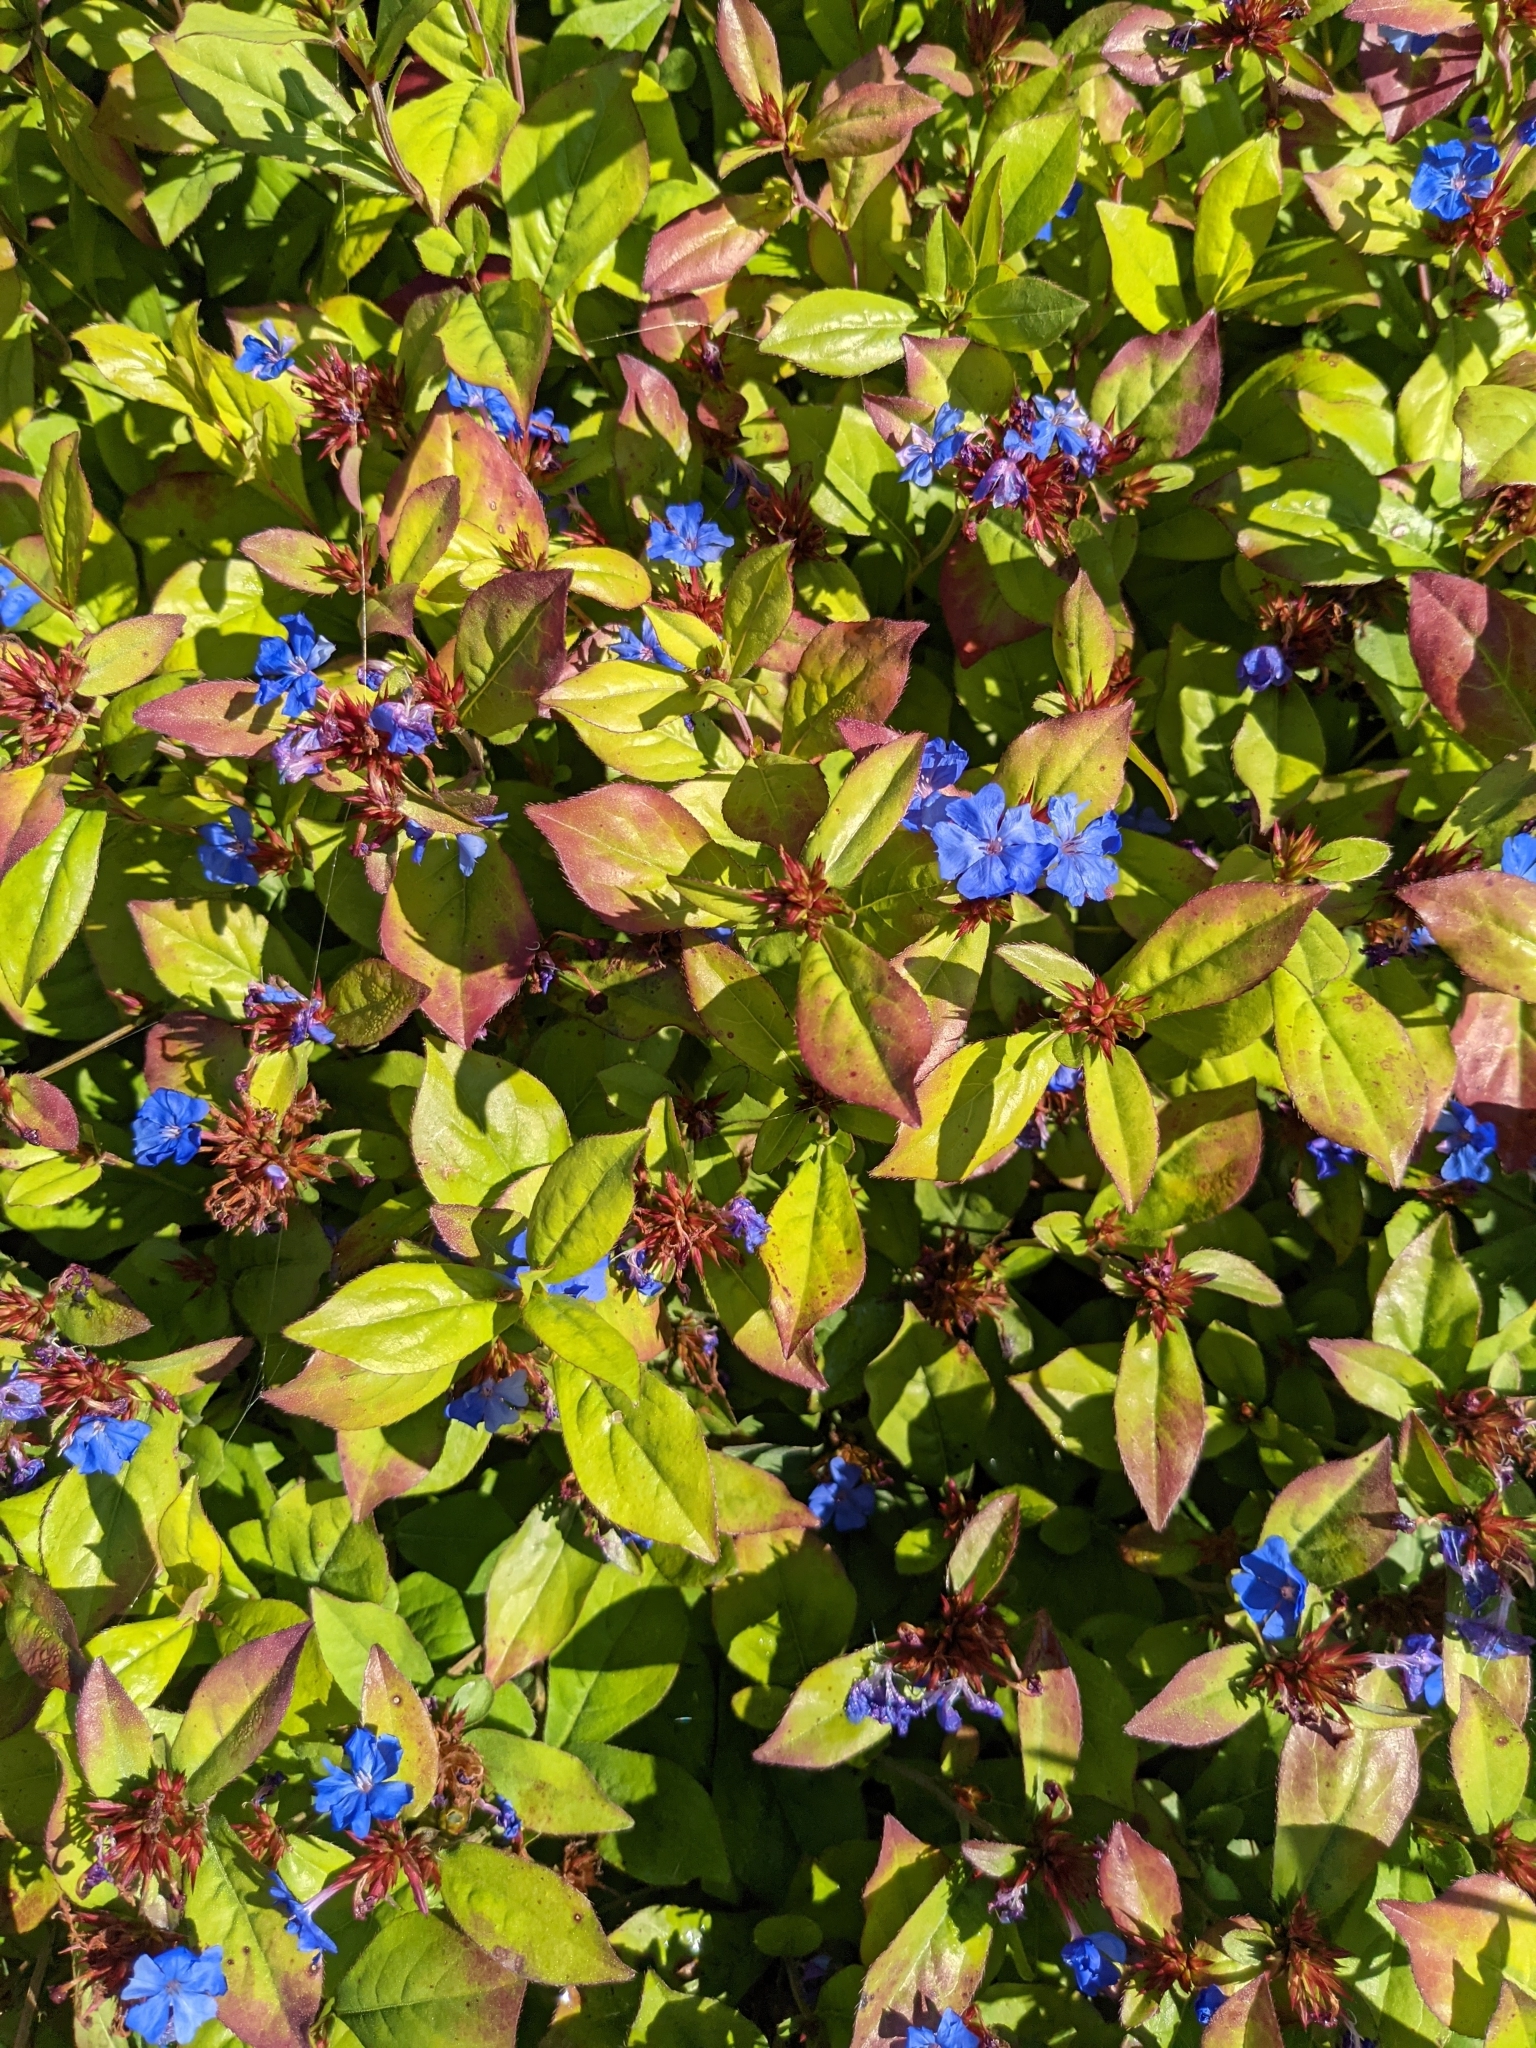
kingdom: Plantae
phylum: Tracheophyta
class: Magnoliopsida
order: Caryophyllales
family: Plumbaginaceae
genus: Ceratostigma
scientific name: Ceratostigma plumbaginoides
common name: Blue leadwood
